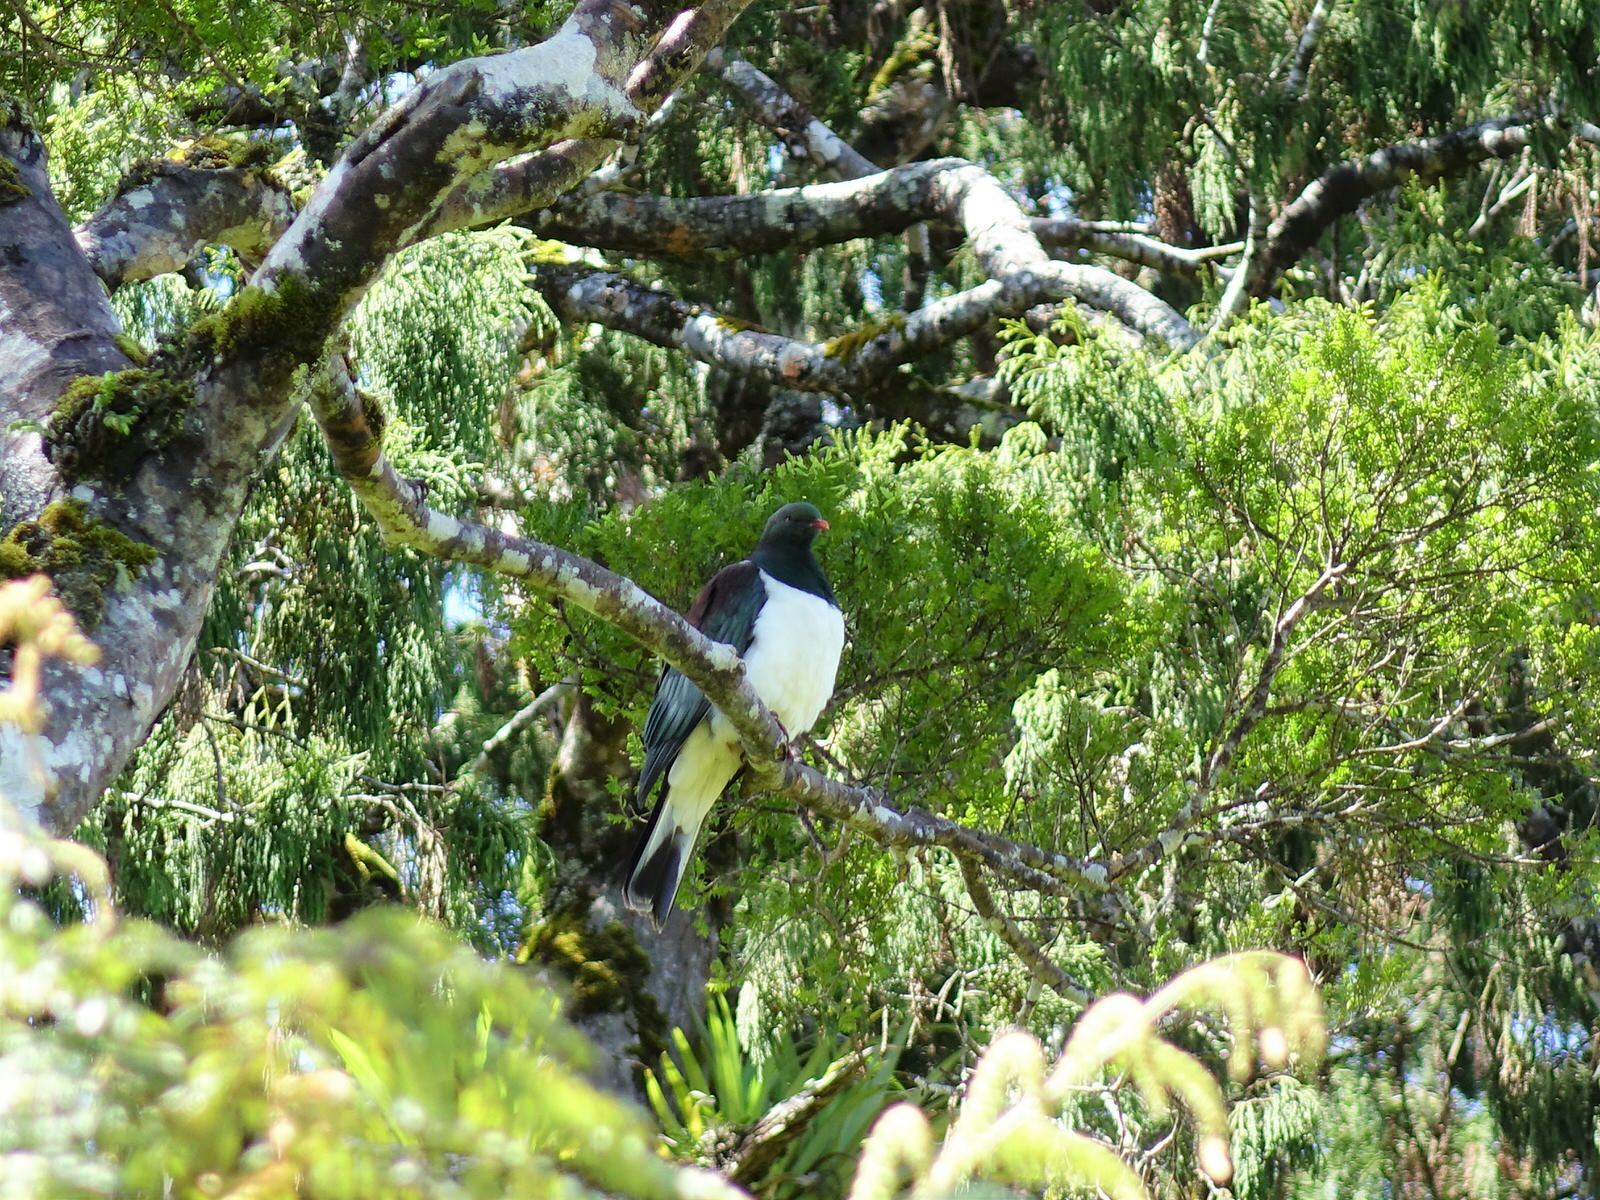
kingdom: Animalia
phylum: Chordata
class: Aves
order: Columbiformes
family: Columbidae
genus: Hemiphaga
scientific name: Hemiphaga novaeseelandiae
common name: New zealand pigeon
